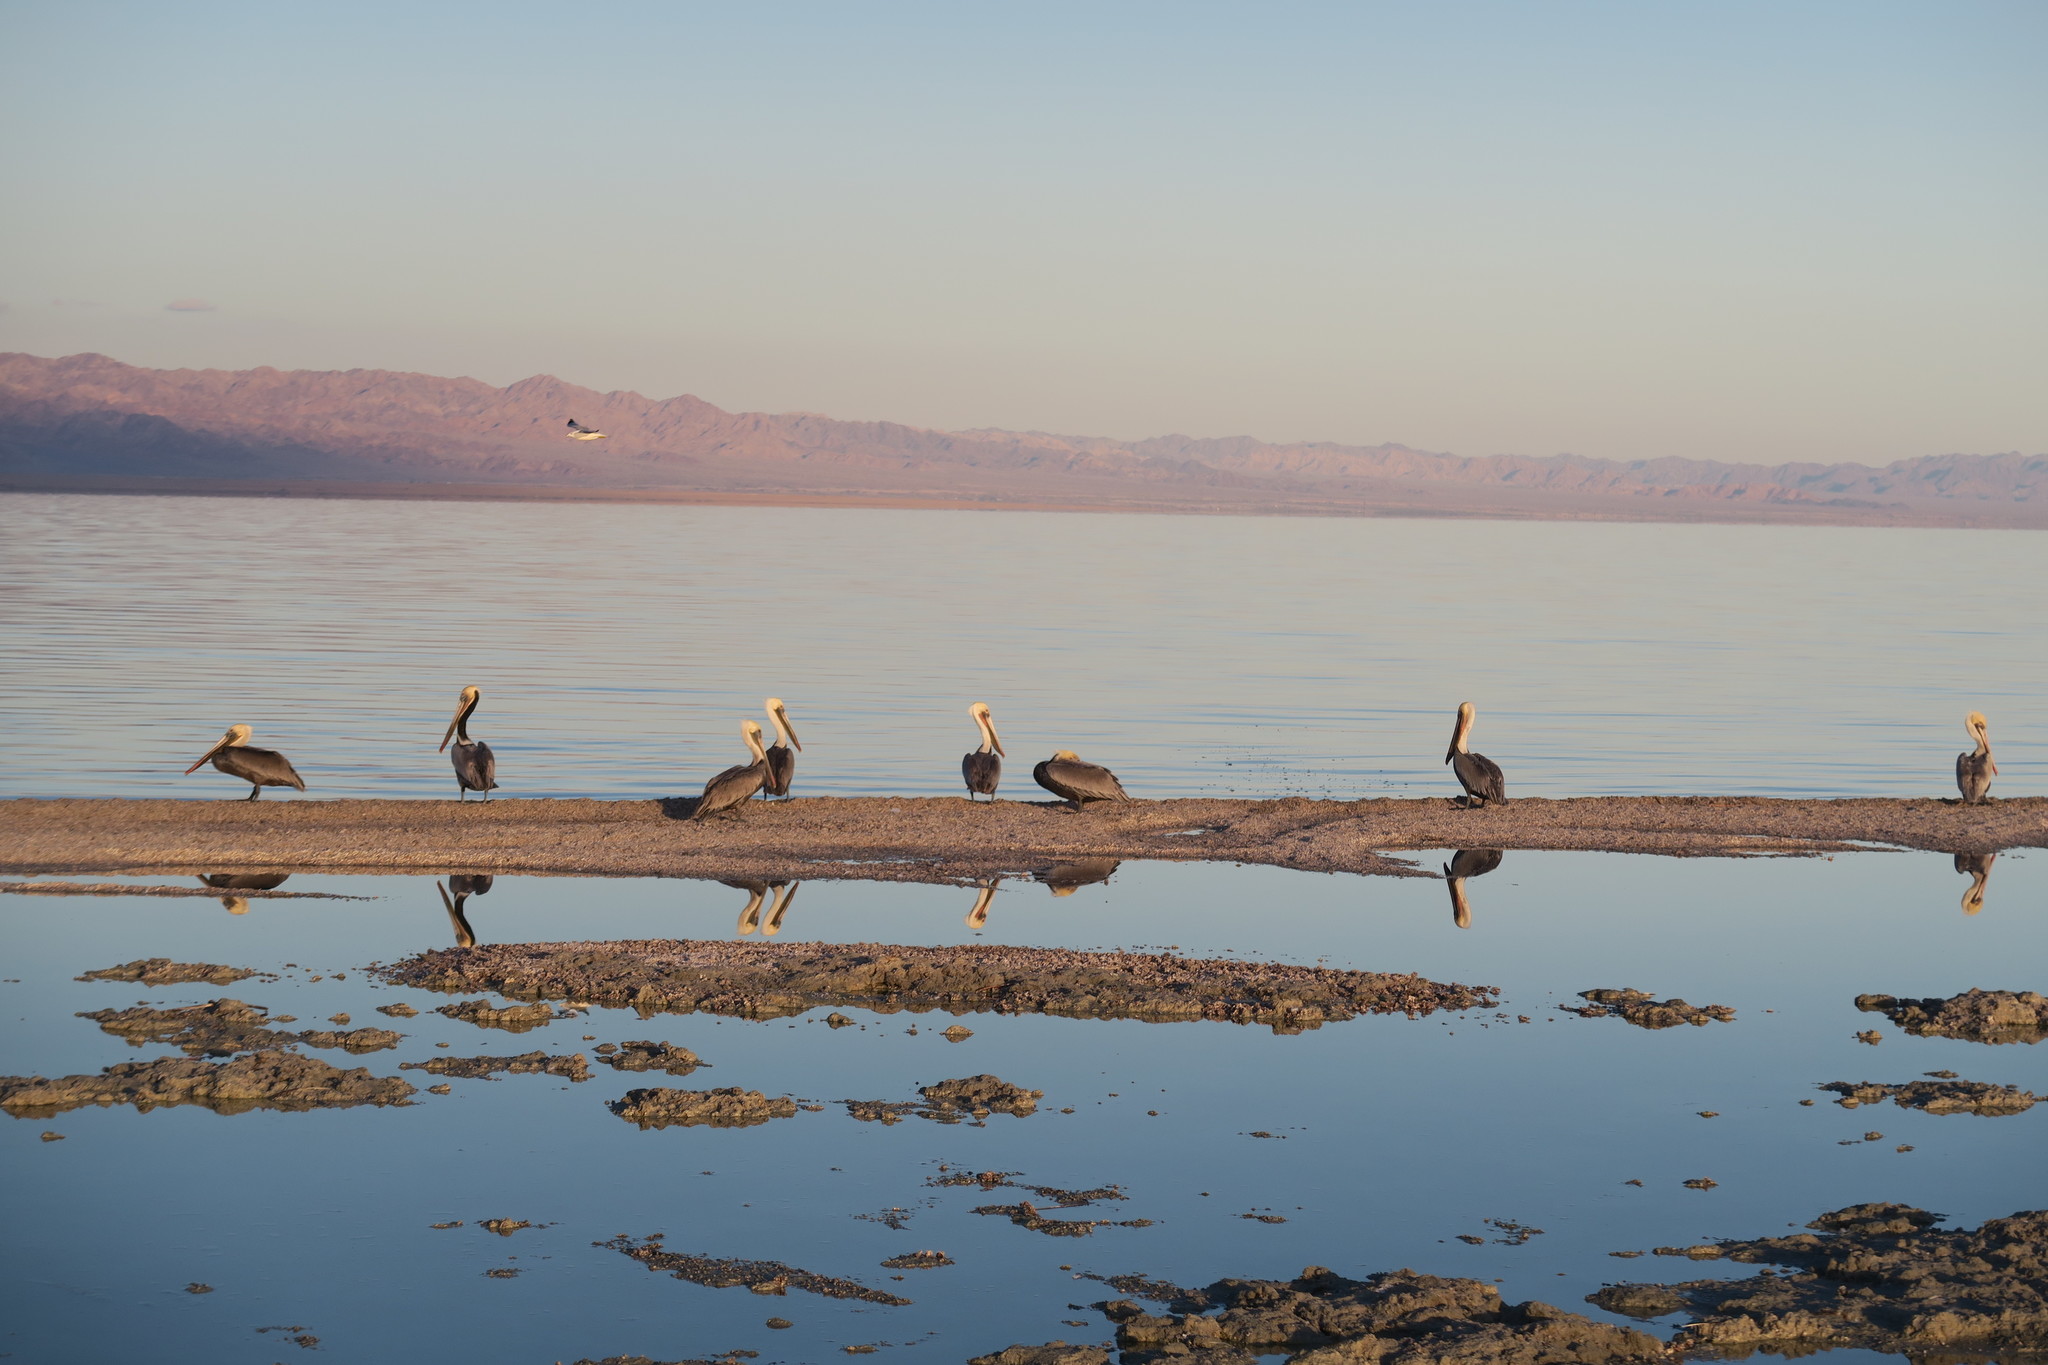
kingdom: Animalia
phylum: Chordata
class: Aves
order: Pelecaniformes
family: Pelecanidae
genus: Pelecanus
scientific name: Pelecanus occidentalis
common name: Brown pelican
